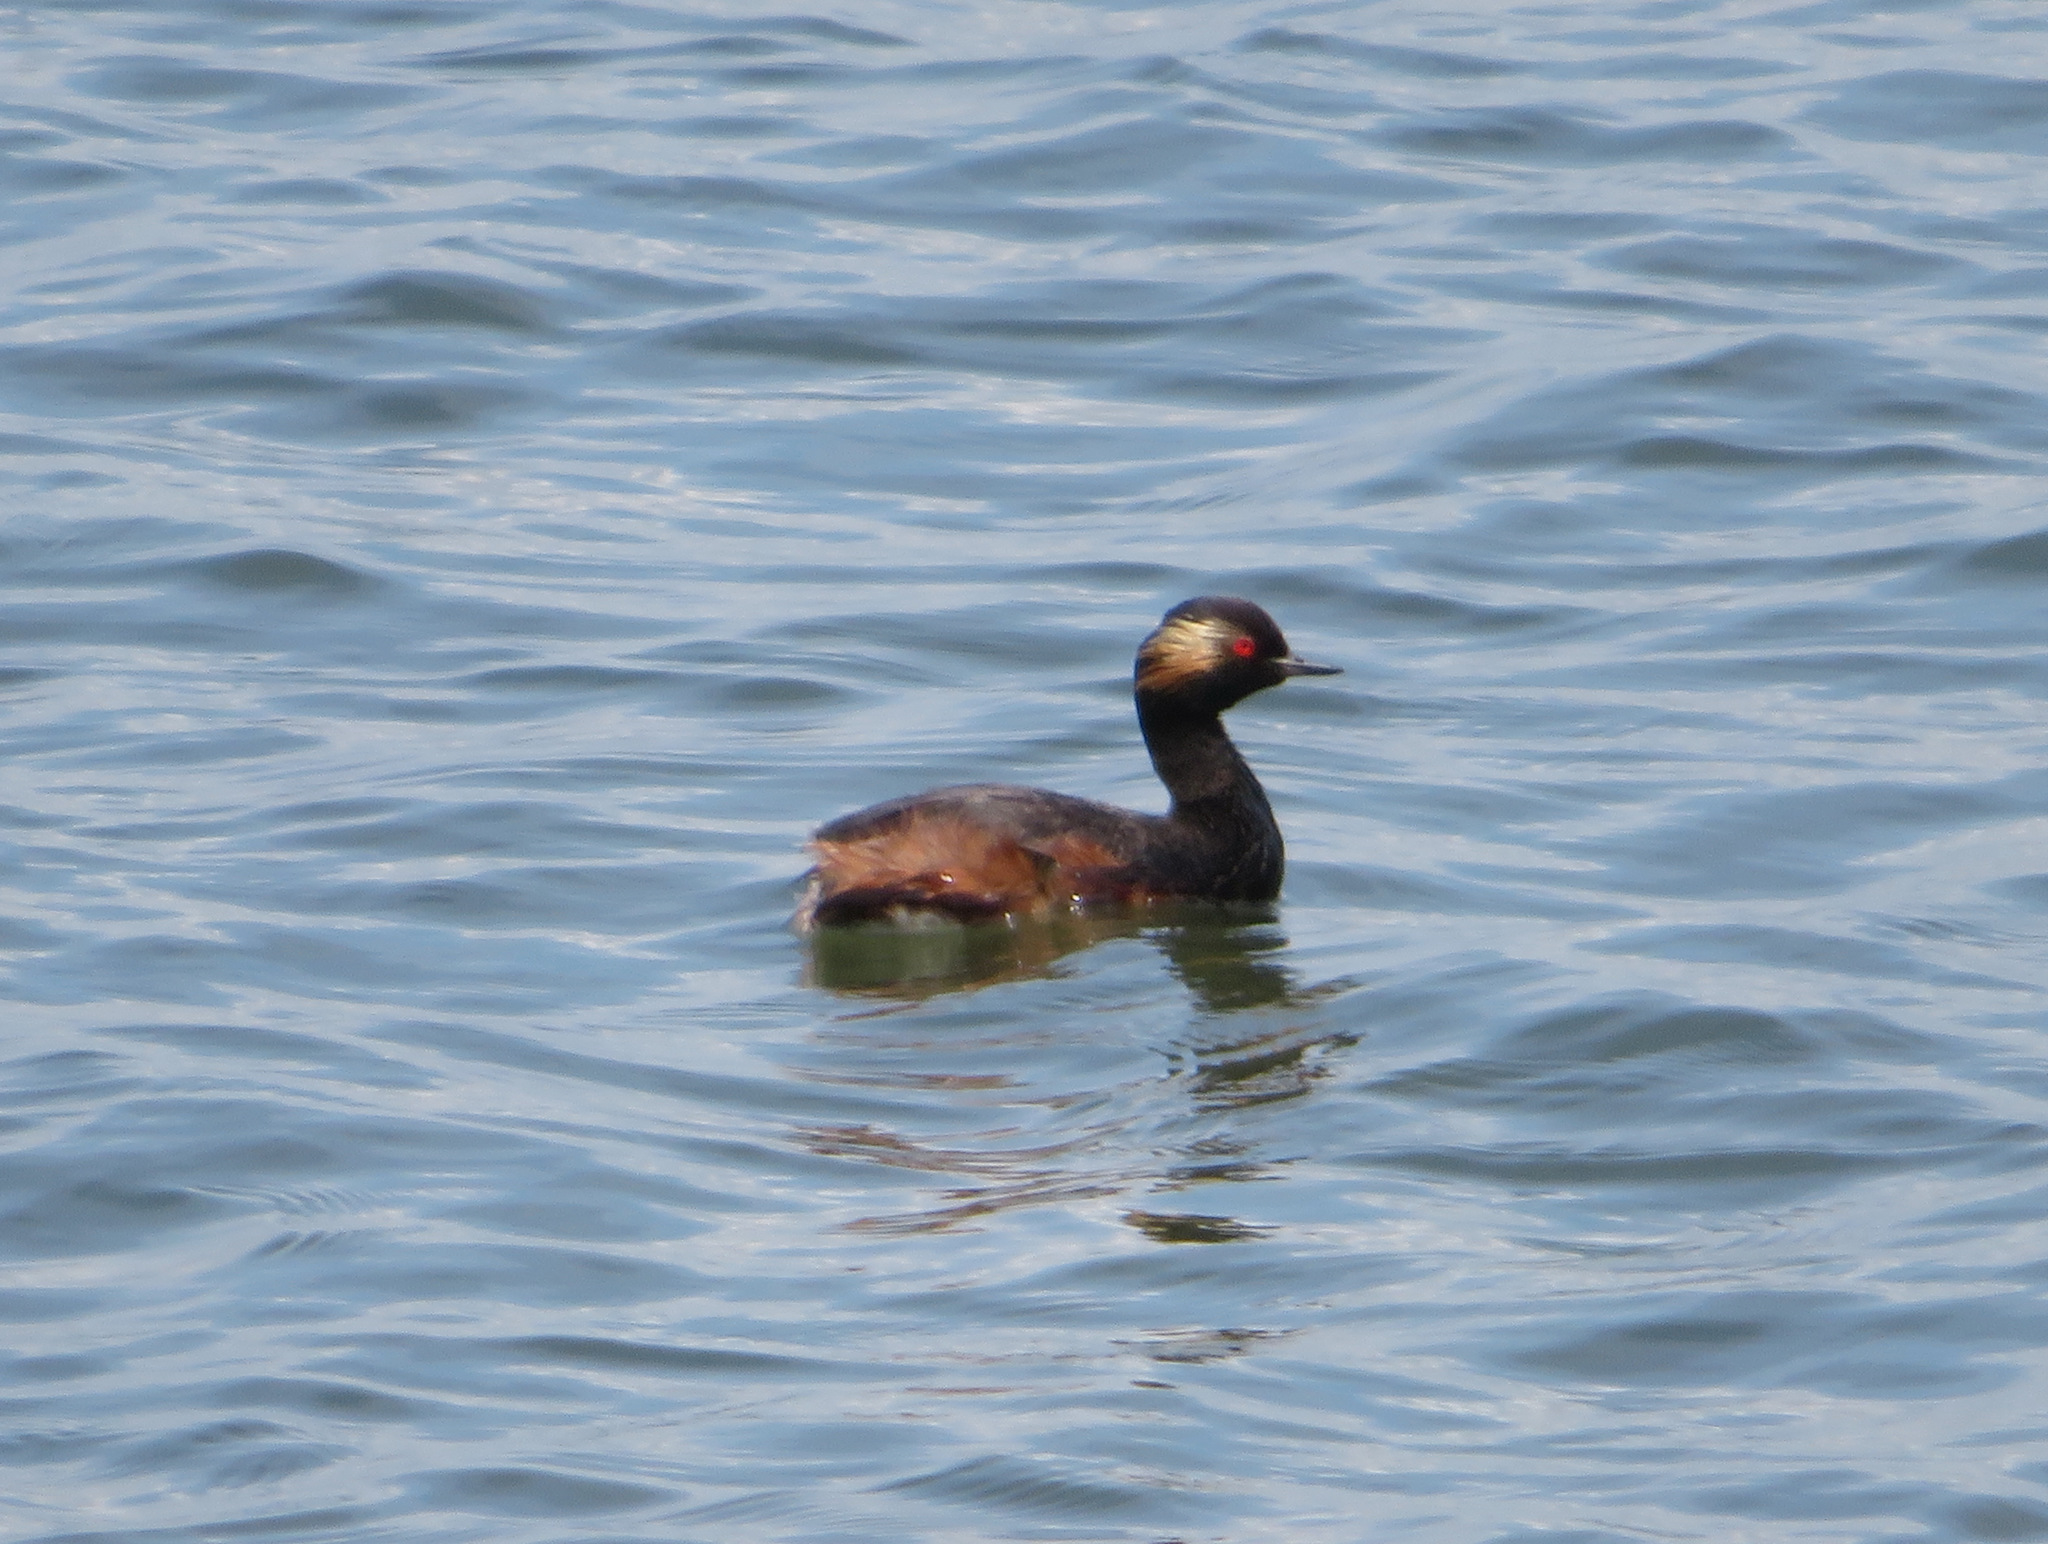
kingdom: Animalia
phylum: Chordata
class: Aves
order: Podicipediformes
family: Podicipedidae
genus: Podiceps
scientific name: Podiceps nigricollis
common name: Black-necked grebe
